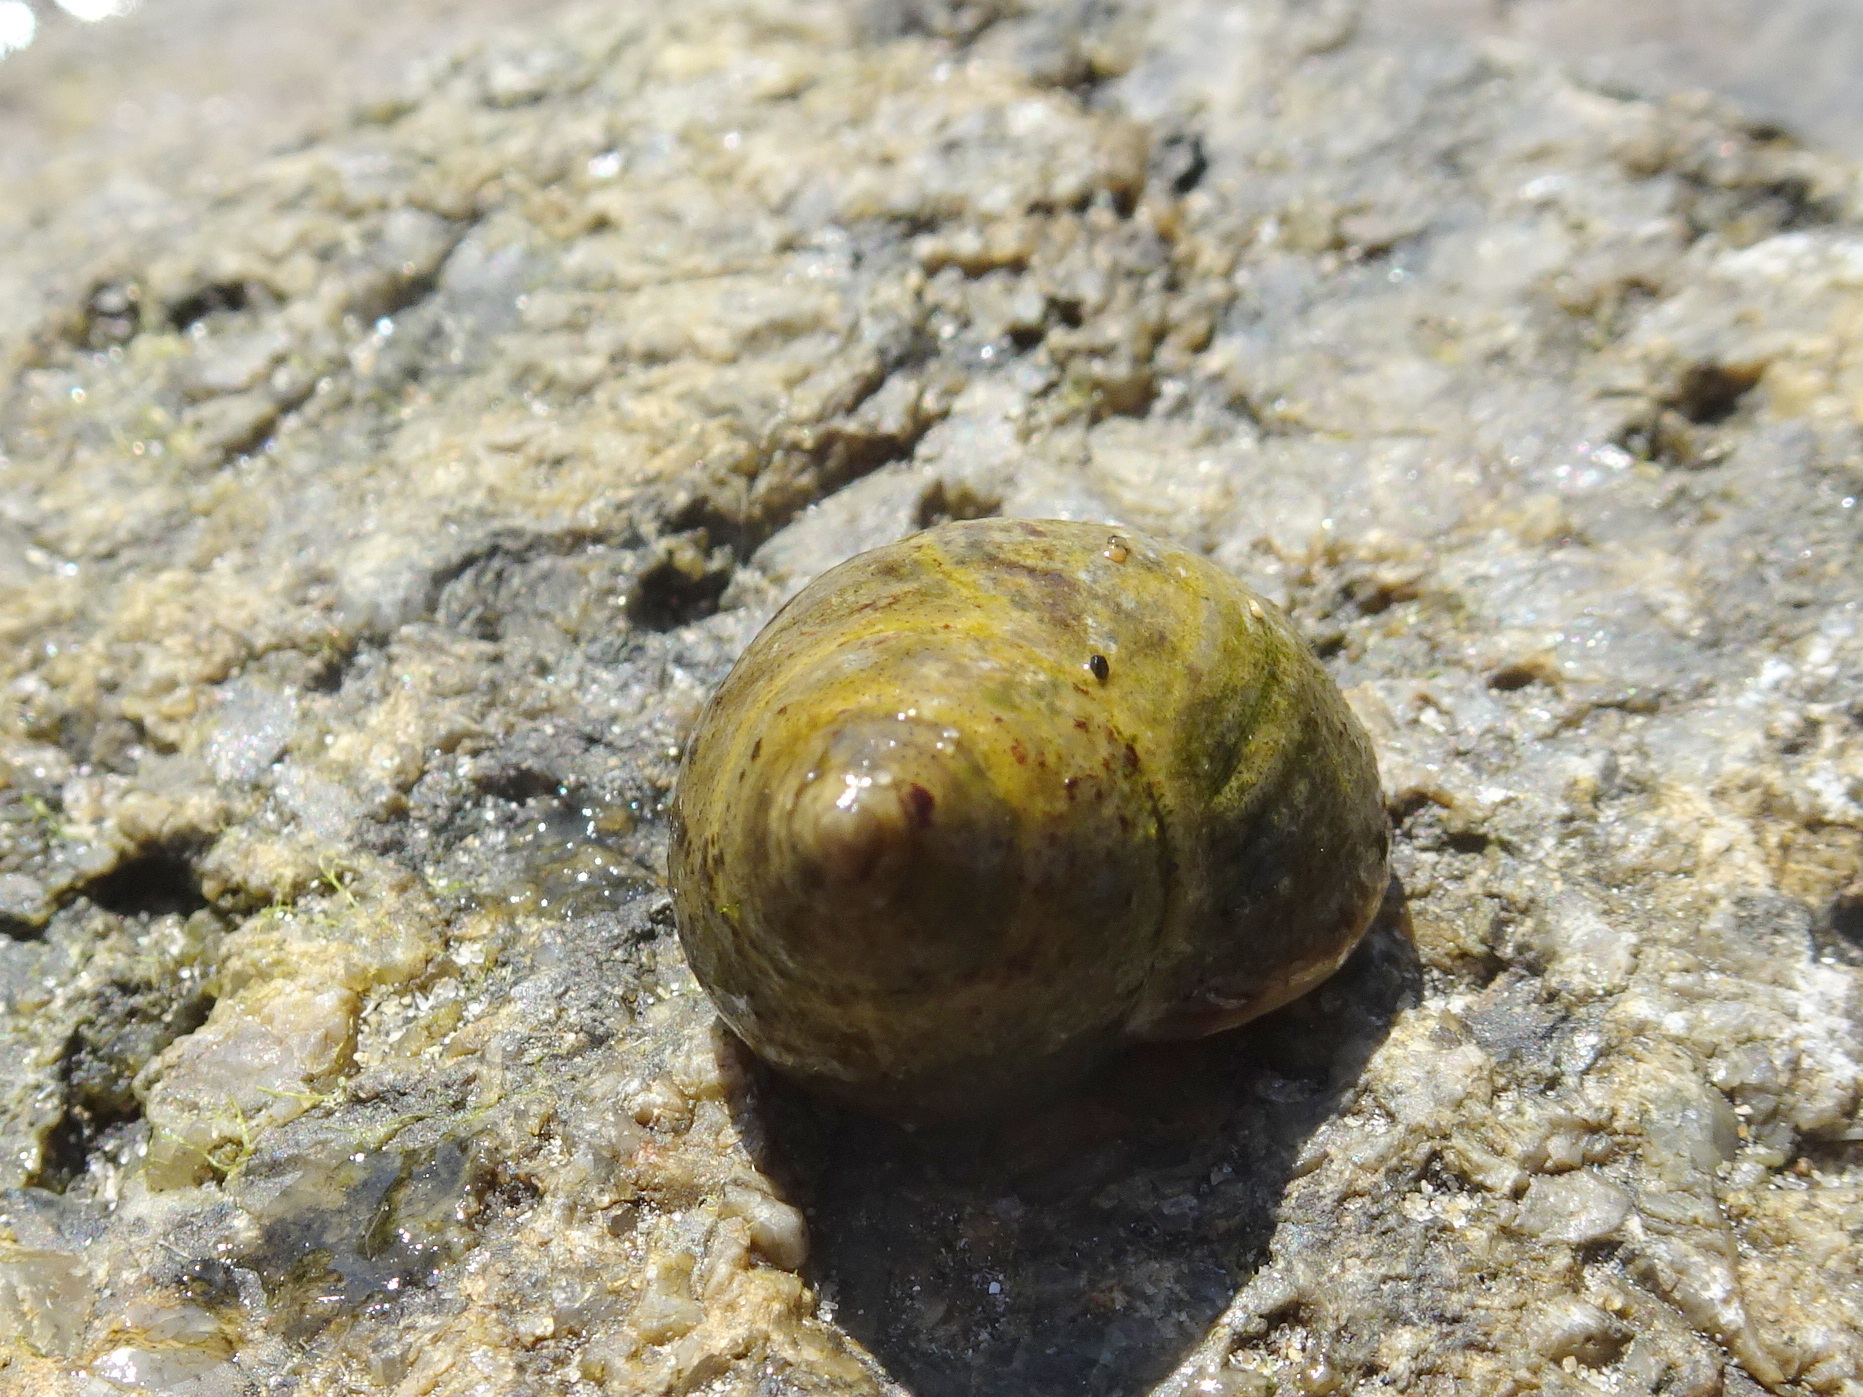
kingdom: Animalia
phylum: Mollusca
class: Gastropoda
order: Littorinimorpha
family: Littorinidae
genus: Littorina
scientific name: Littorina littorea
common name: Common periwinkle
